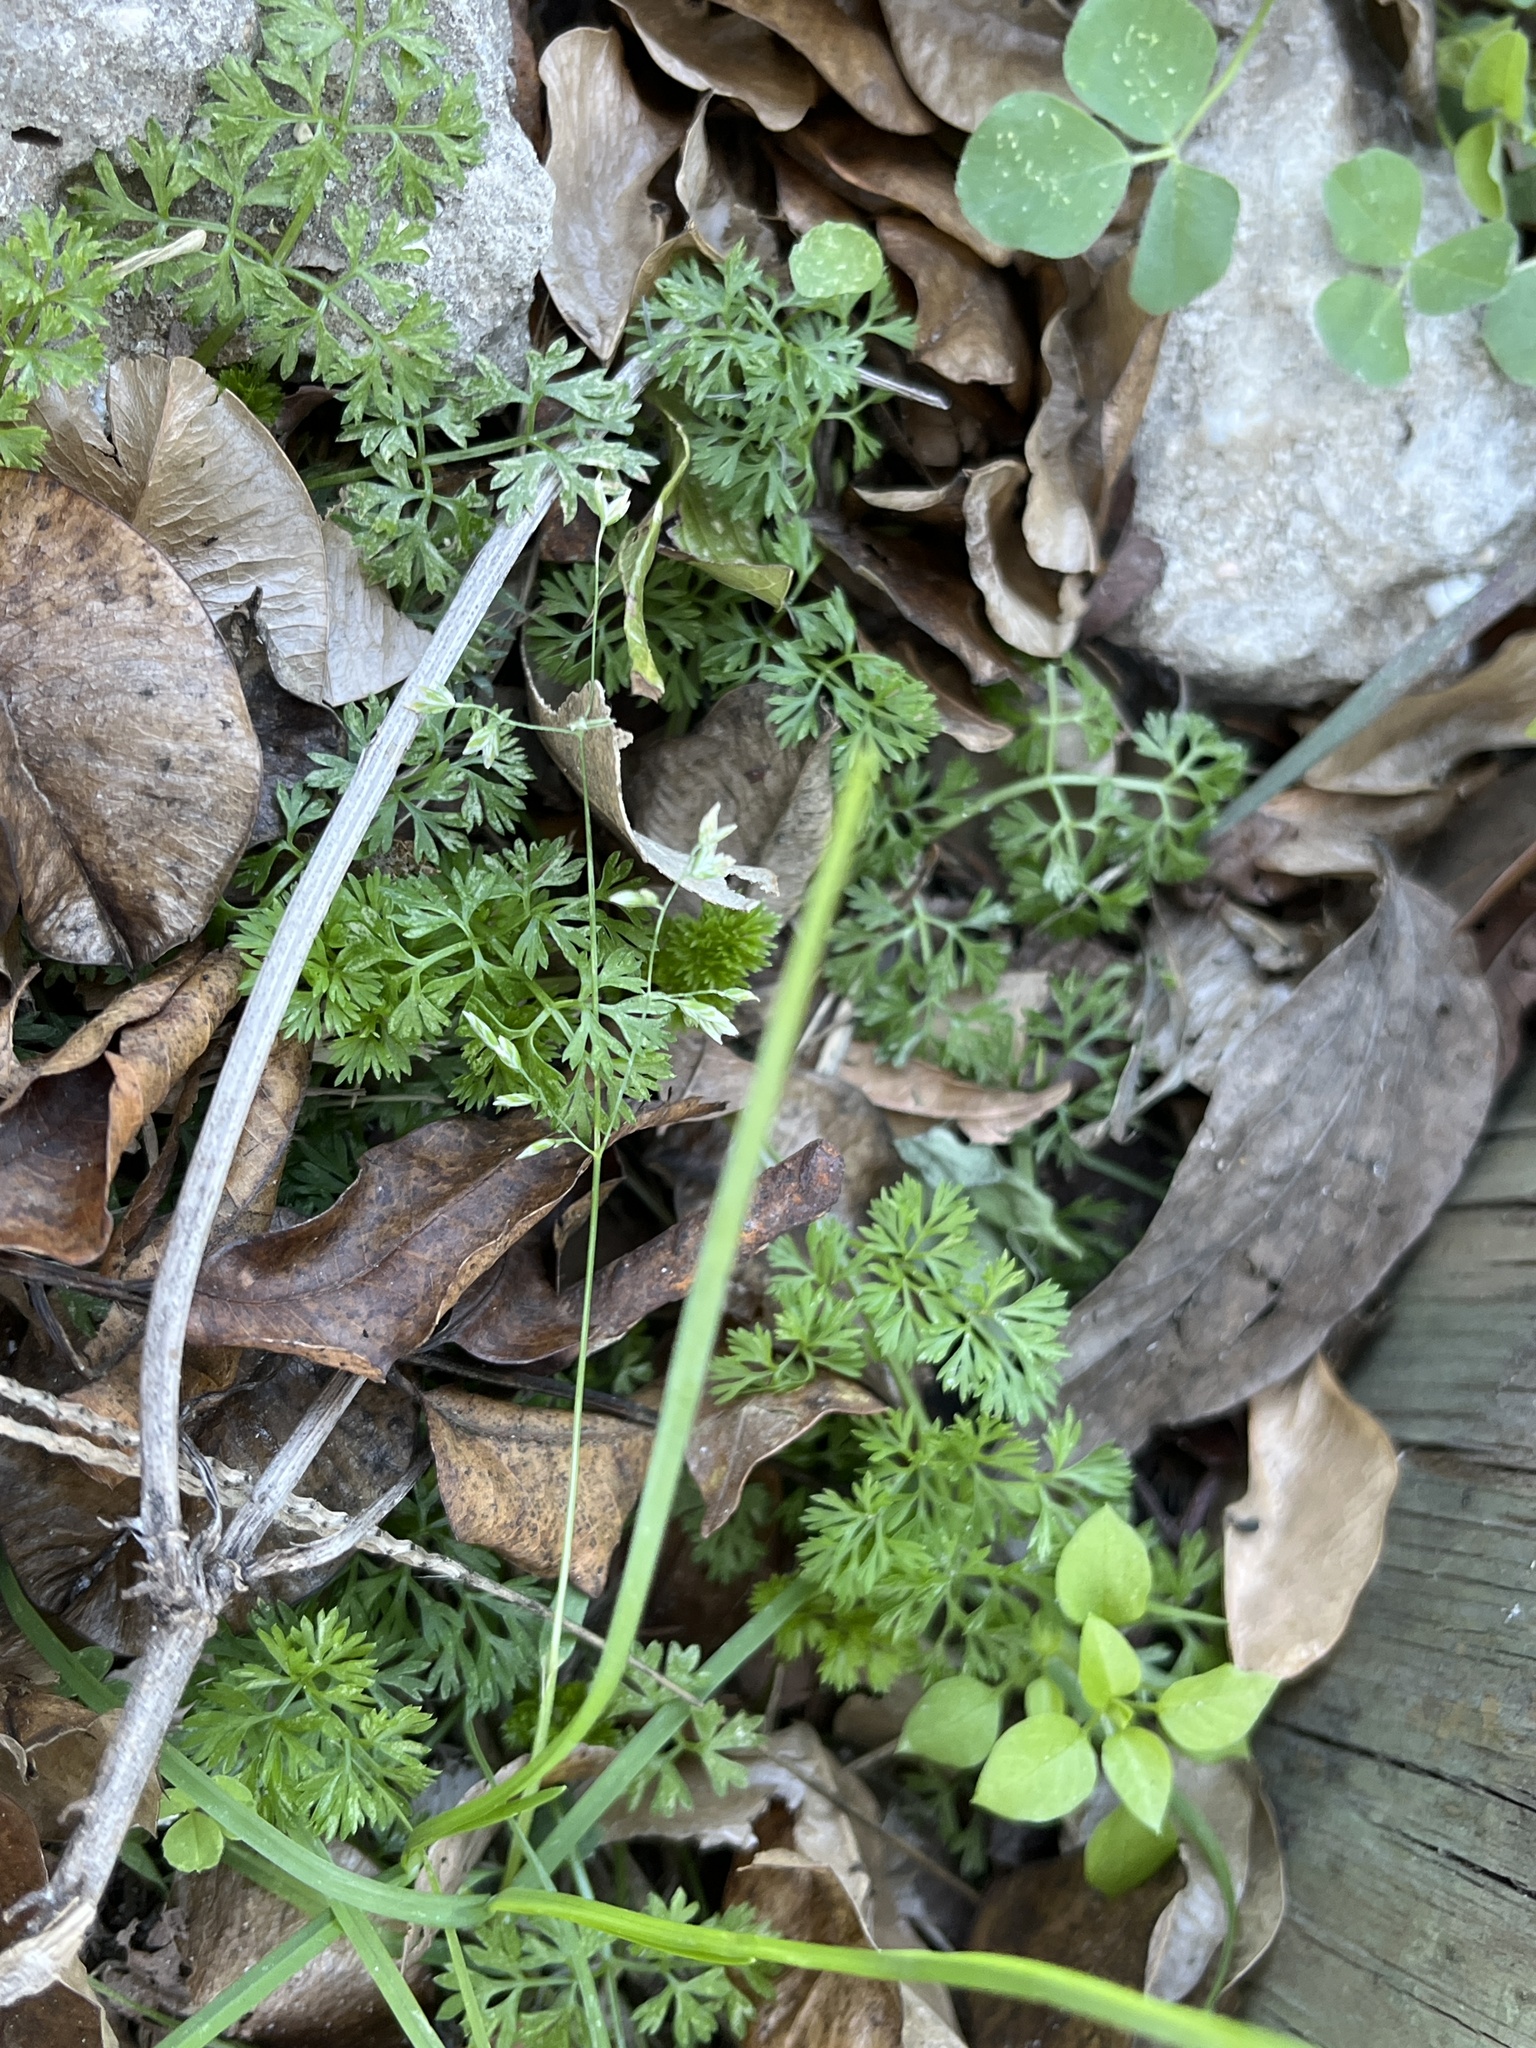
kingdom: Plantae
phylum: Tracheophyta
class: Magnoliopsida
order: Asterales
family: Asteraceae
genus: Soliva
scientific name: Soliva sessilis
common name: Field burrweed
